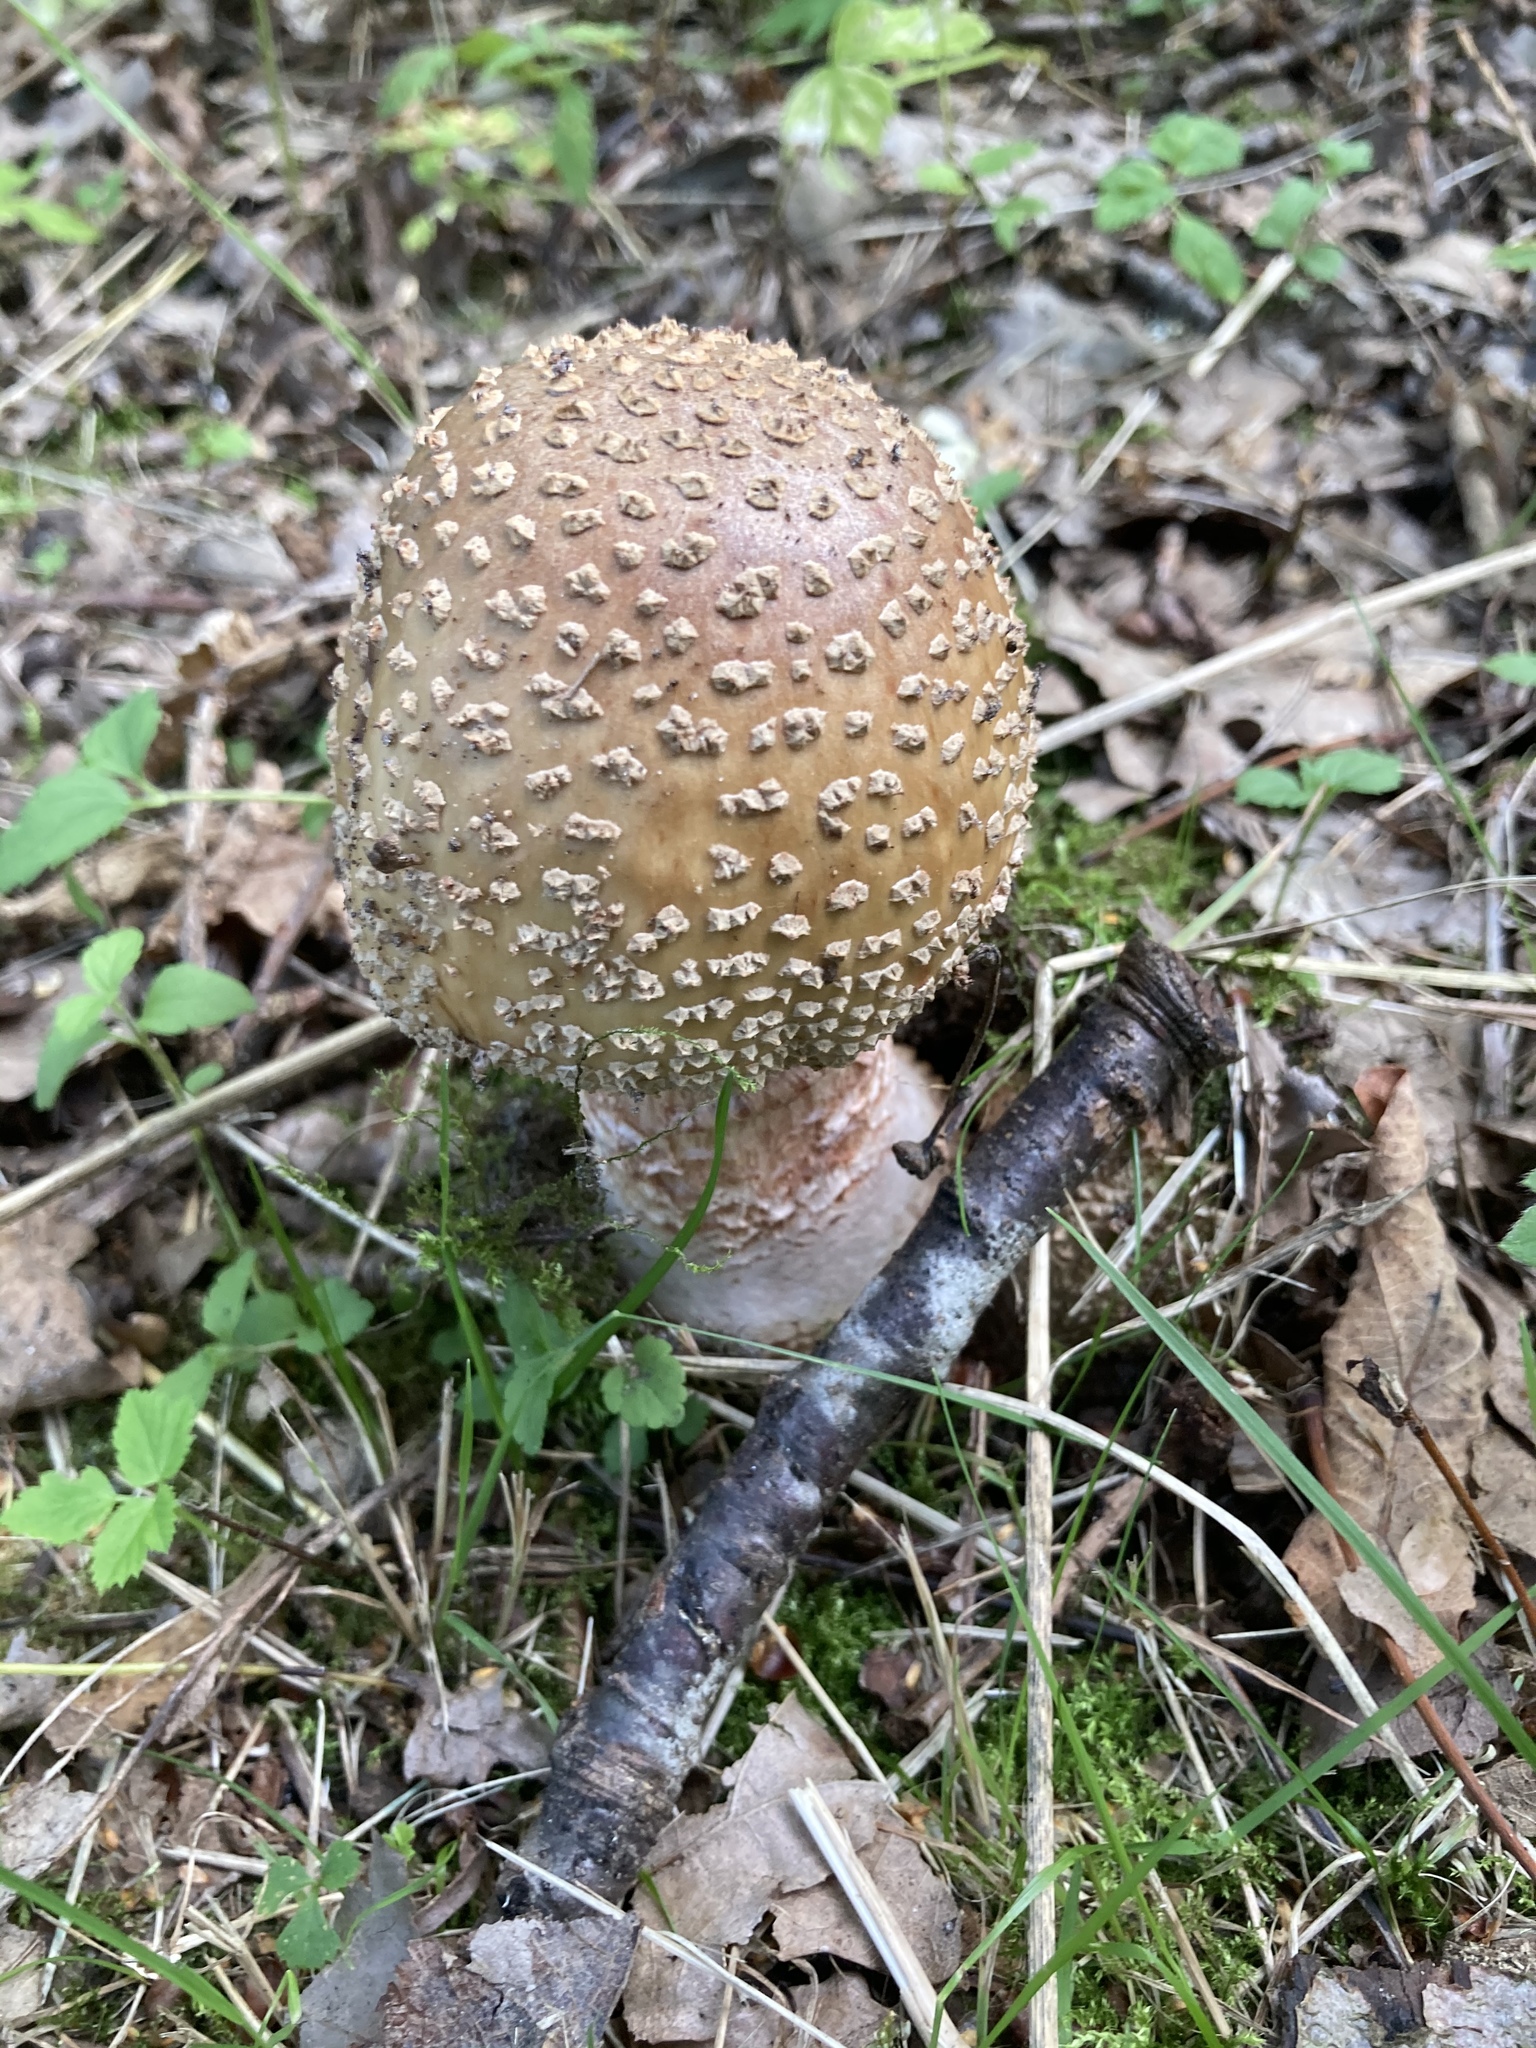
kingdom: Fungi
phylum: Basidiomycota
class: Agaricomycetes
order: Agaricales
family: Amanitaceae
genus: Amanita
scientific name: Amanita rubescens
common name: Blusher
